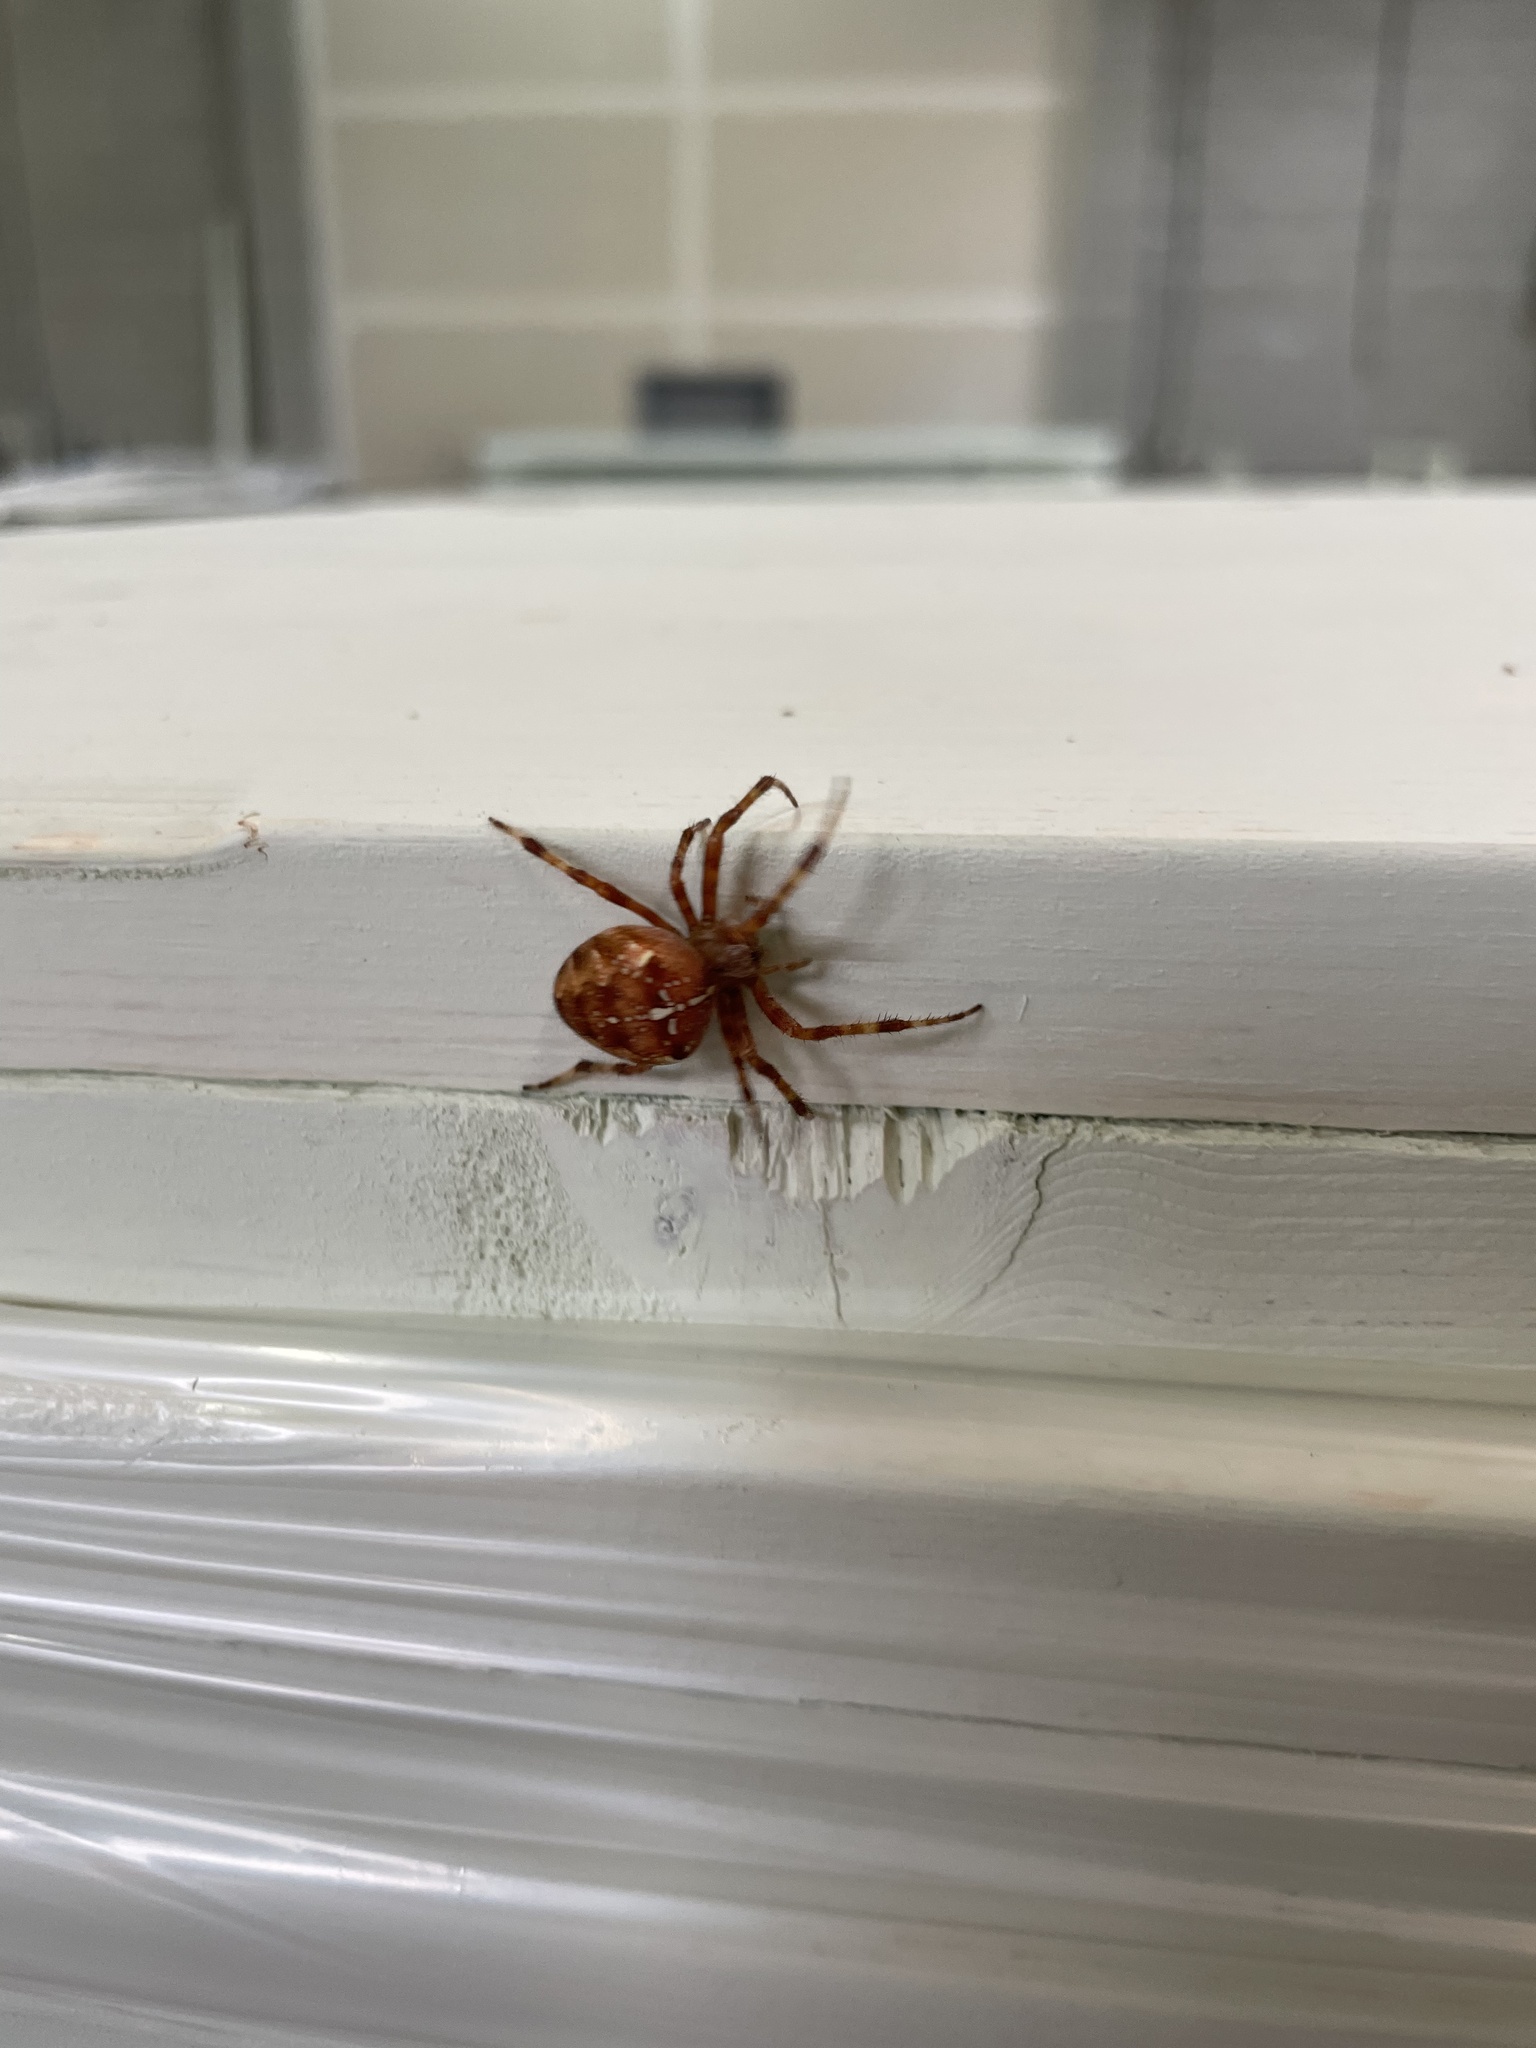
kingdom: Animalia
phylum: Arthropoda
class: Arachnida
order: Araneae
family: Araneidae
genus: Araneus
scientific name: Araneus diadematus
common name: Cross orbweaver
